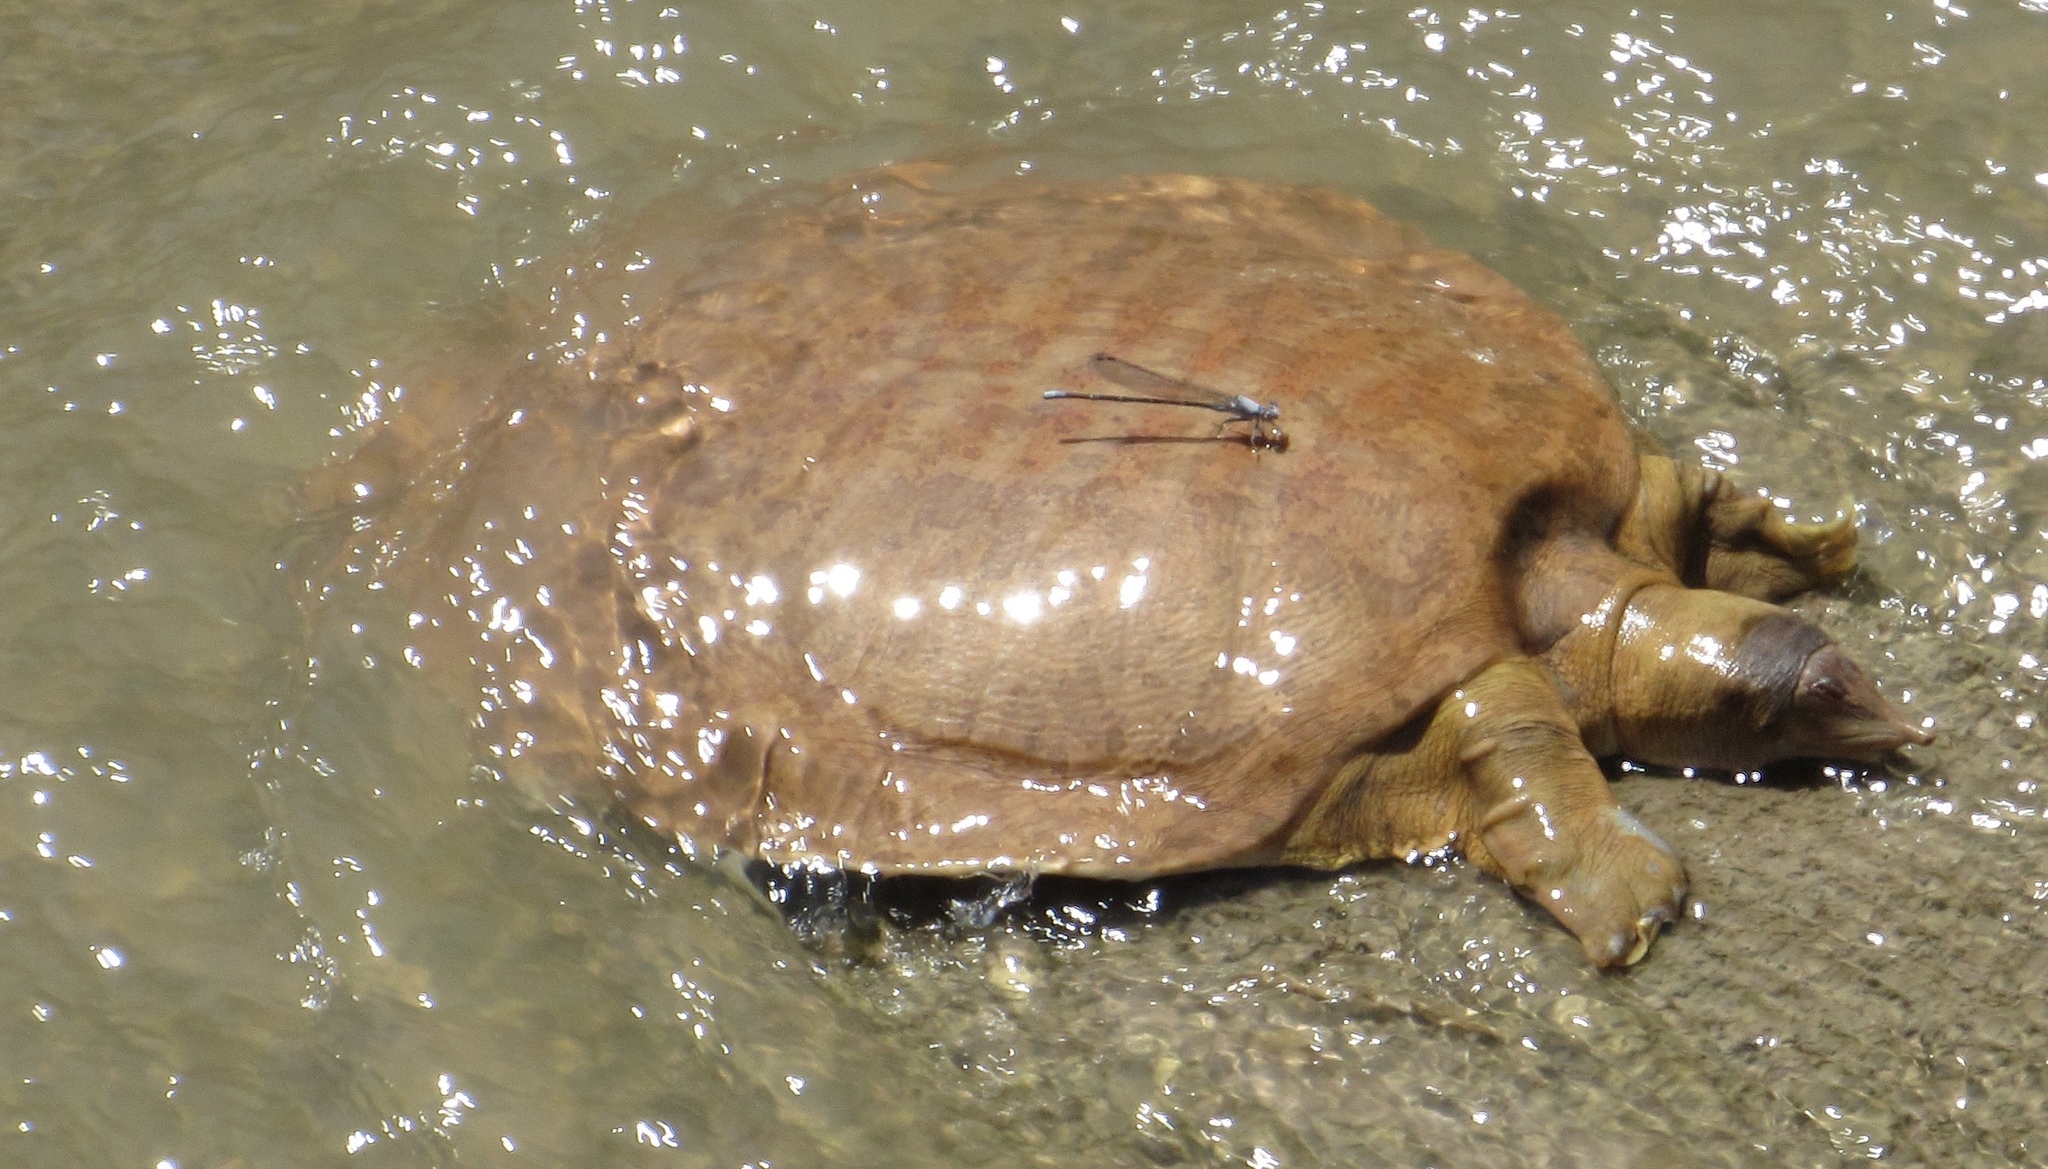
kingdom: Animalia
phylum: Chordata
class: Testudines
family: Trionychidae
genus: Apalone
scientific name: Apalone mutica
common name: Smooth softshell turtle
